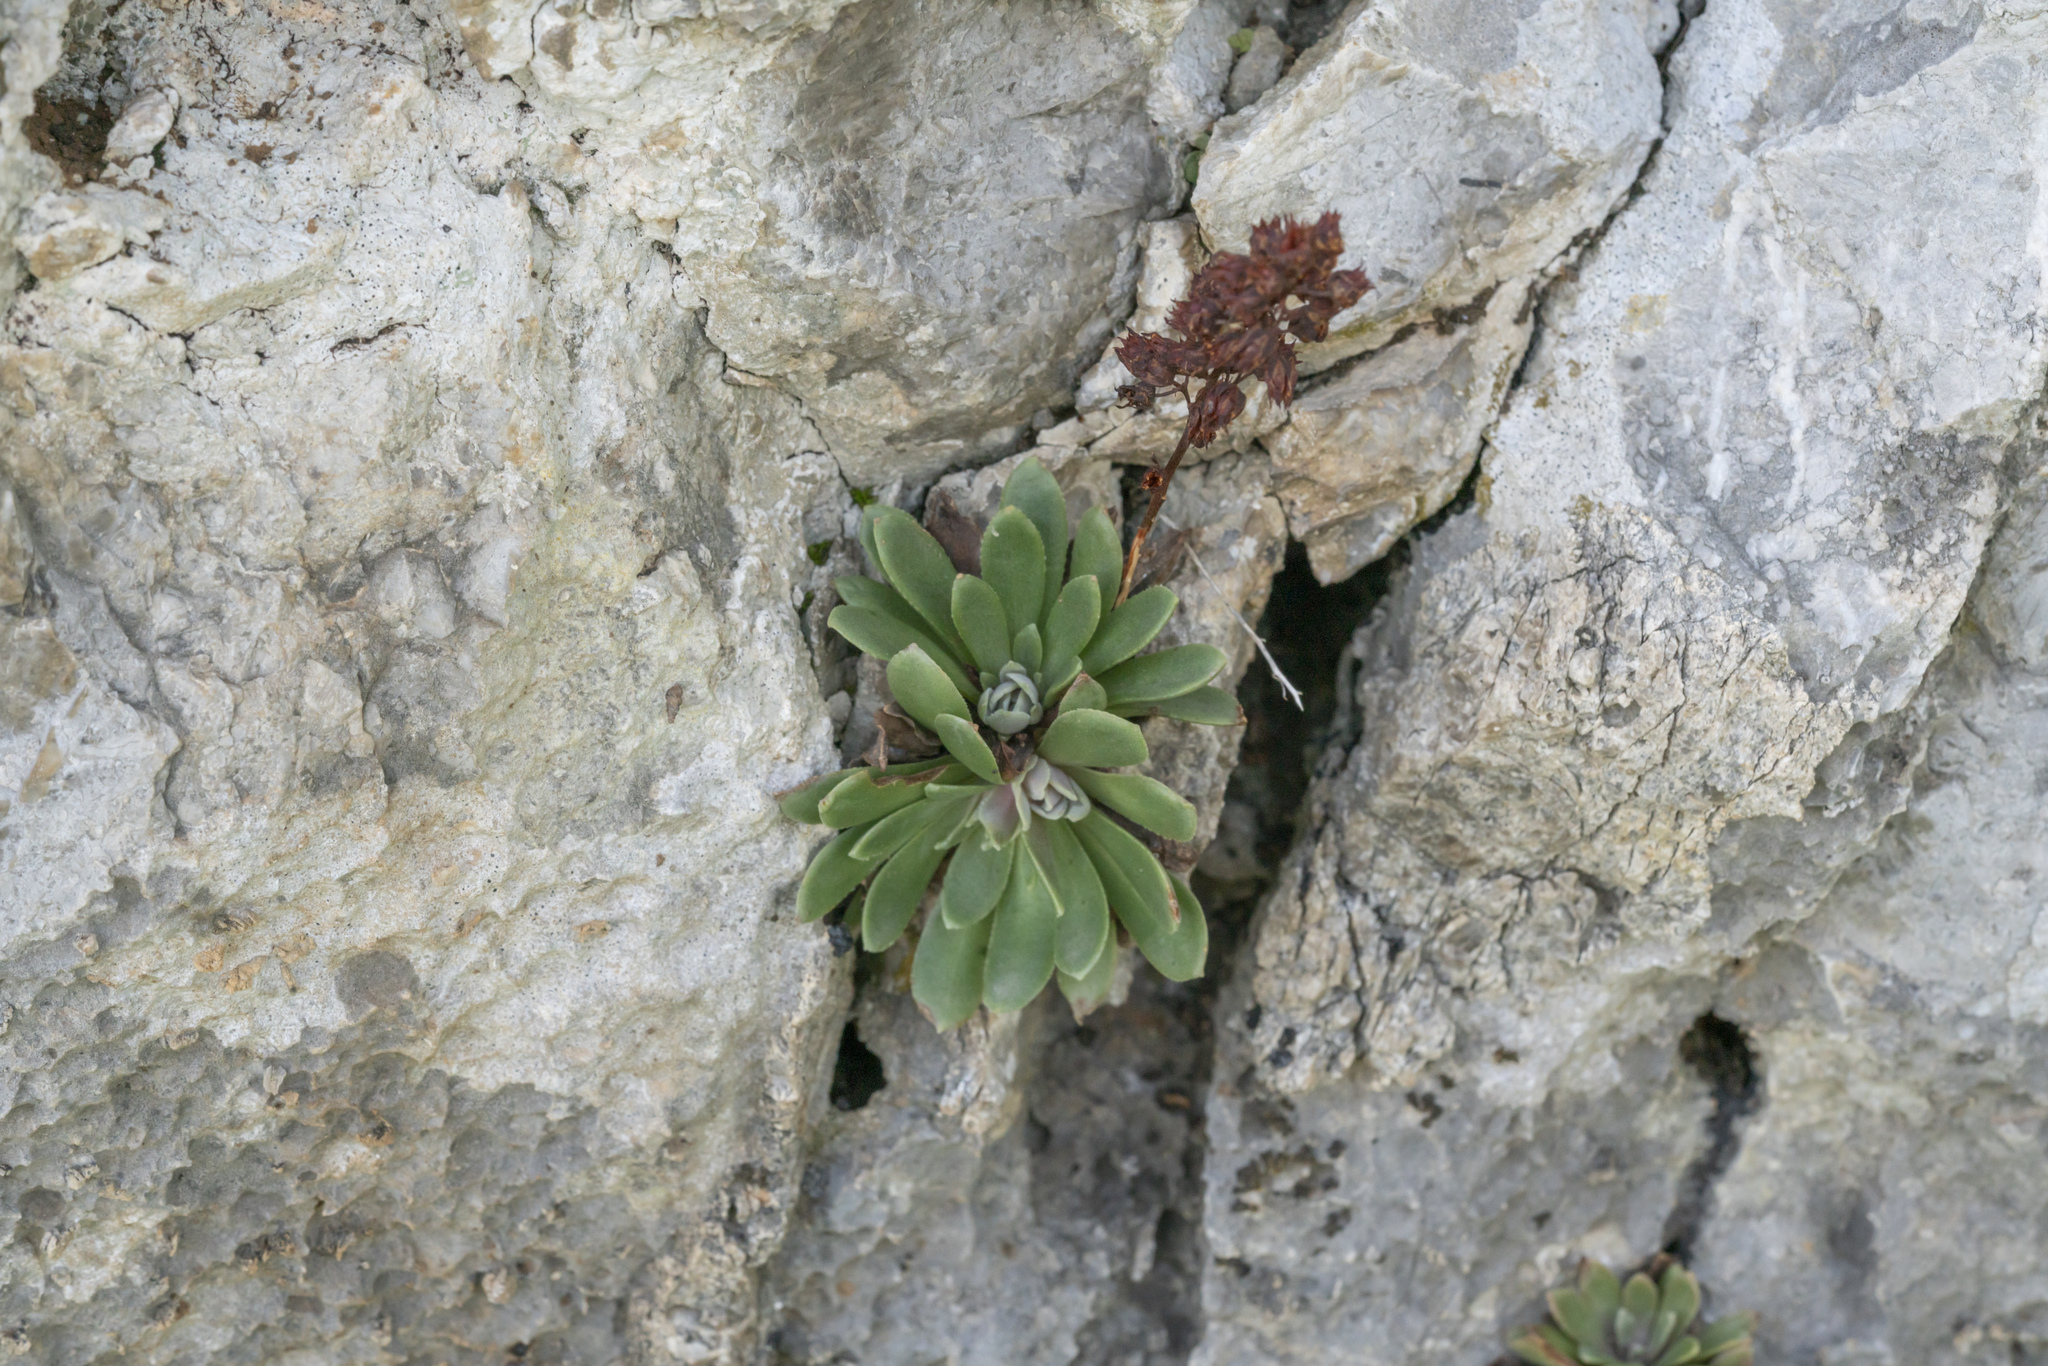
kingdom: Plantae
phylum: Tracheophyta
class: Magnoliopsida
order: Saxifragales
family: Crassulaceae
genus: Rosularia
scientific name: Rosularia serrata
